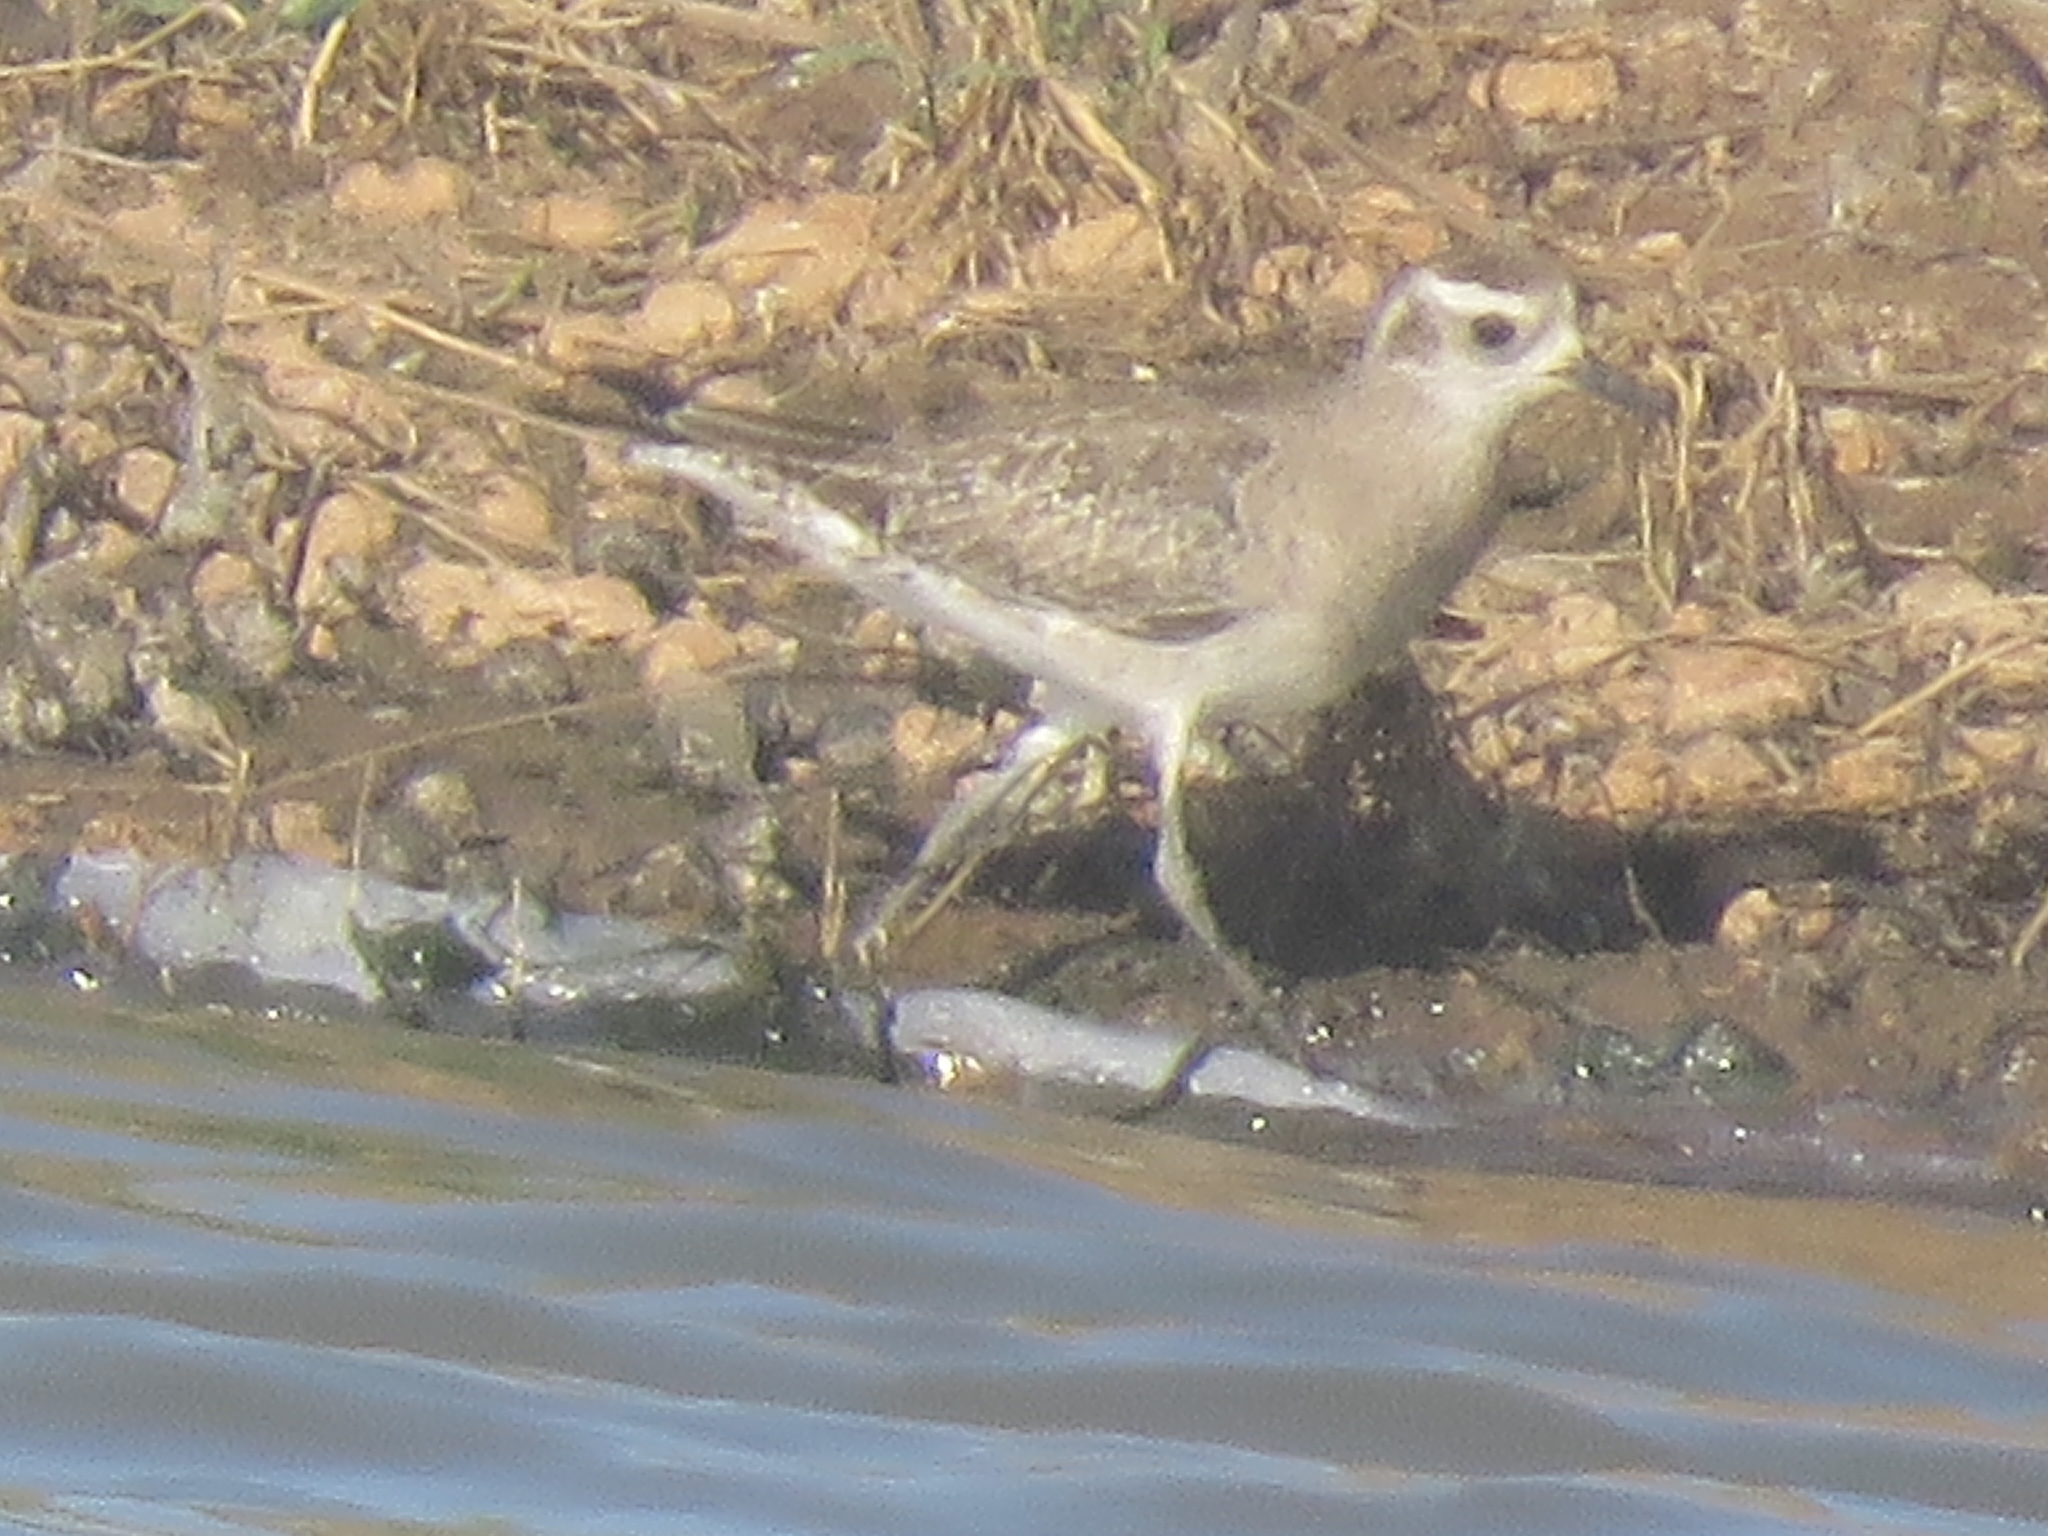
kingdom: Animalia
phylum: Chordata
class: Aves
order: Charadriiformes
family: Charadriidae
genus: Pluvialis
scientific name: Pluvialis dominica
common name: American golden plover
